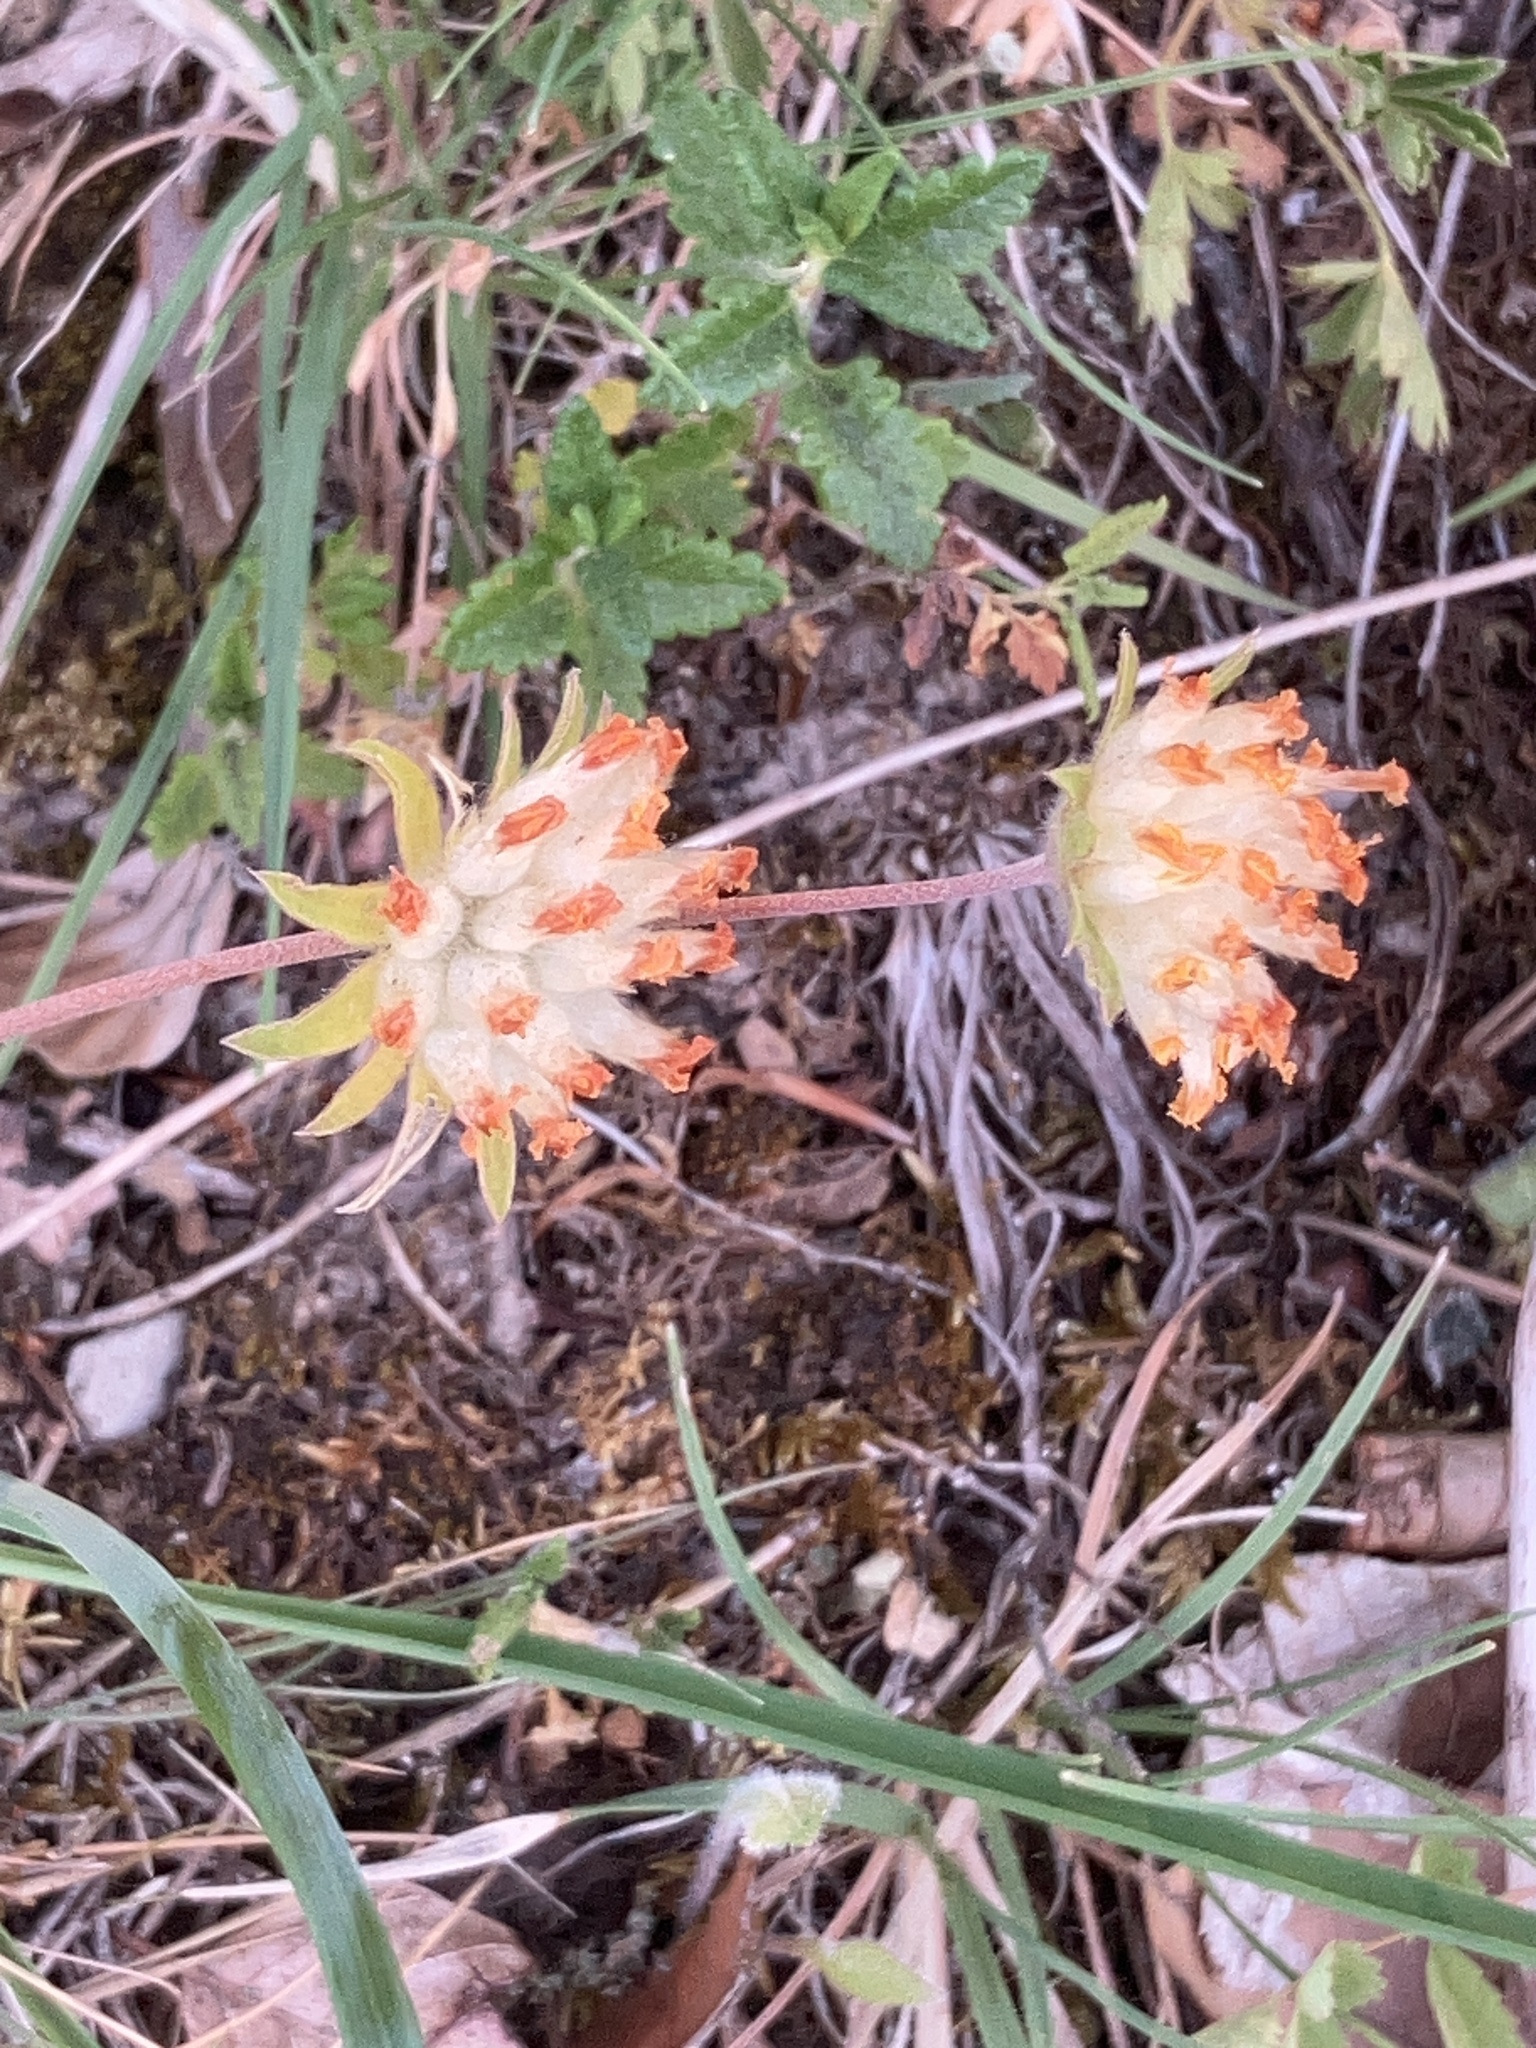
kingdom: Plantae
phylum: Tracheophyta
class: Magnoliopsida
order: Fabales
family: Fabaceae
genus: Anthyllis
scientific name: Anthyllis vulneraria
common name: Kidney vetch
